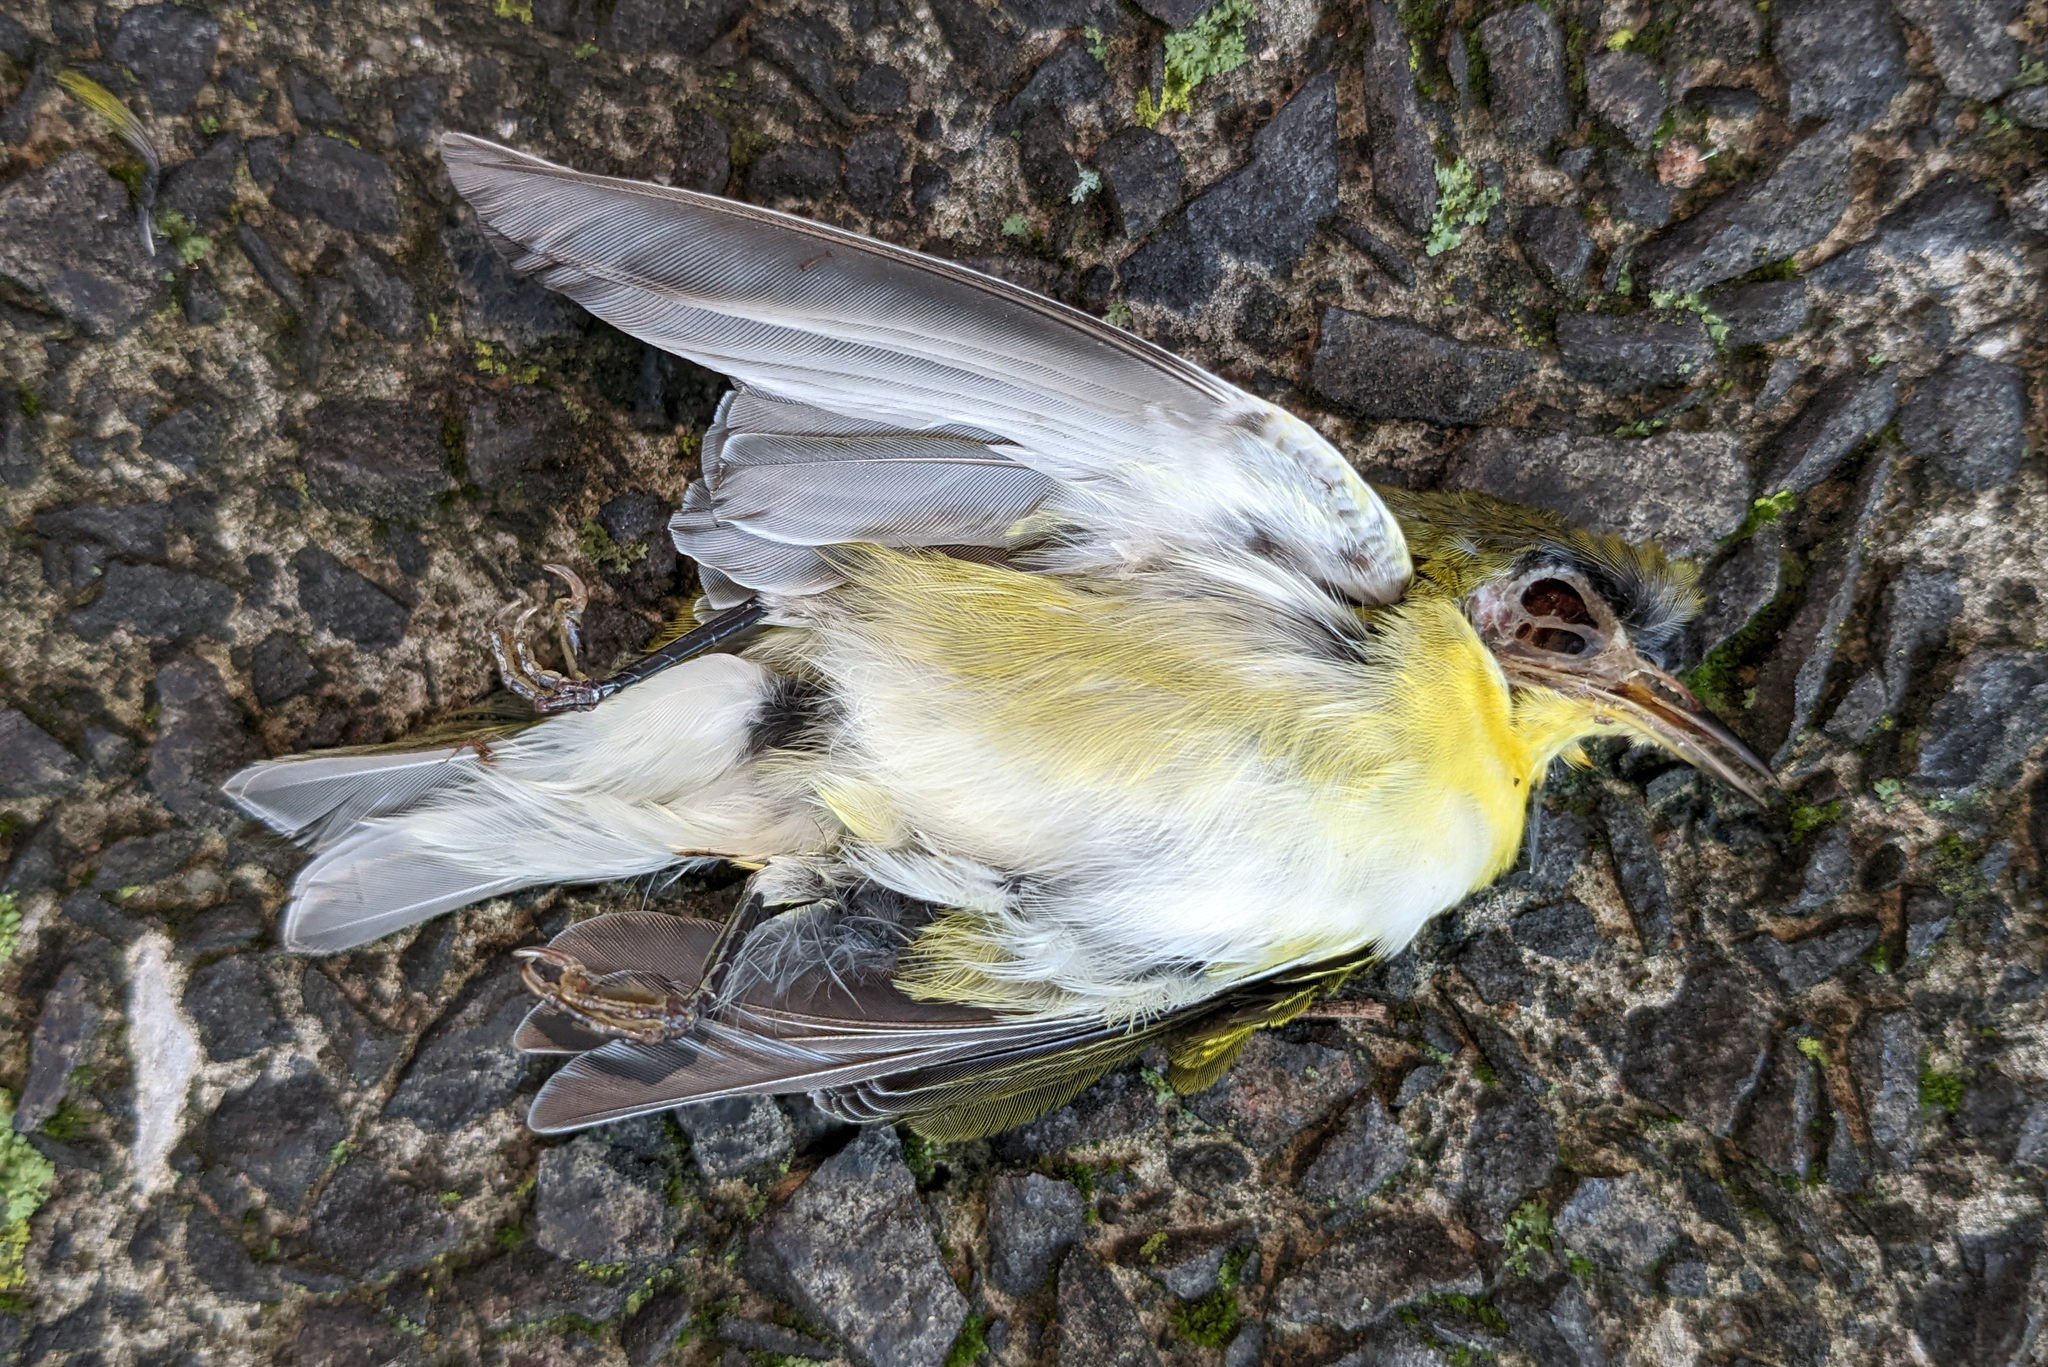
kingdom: Animalia
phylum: Chordata
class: Aves
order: Passeriformes
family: Parulidae
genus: Leiothlypis
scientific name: Leiothlypis peregrina
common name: Tennessee warbler
